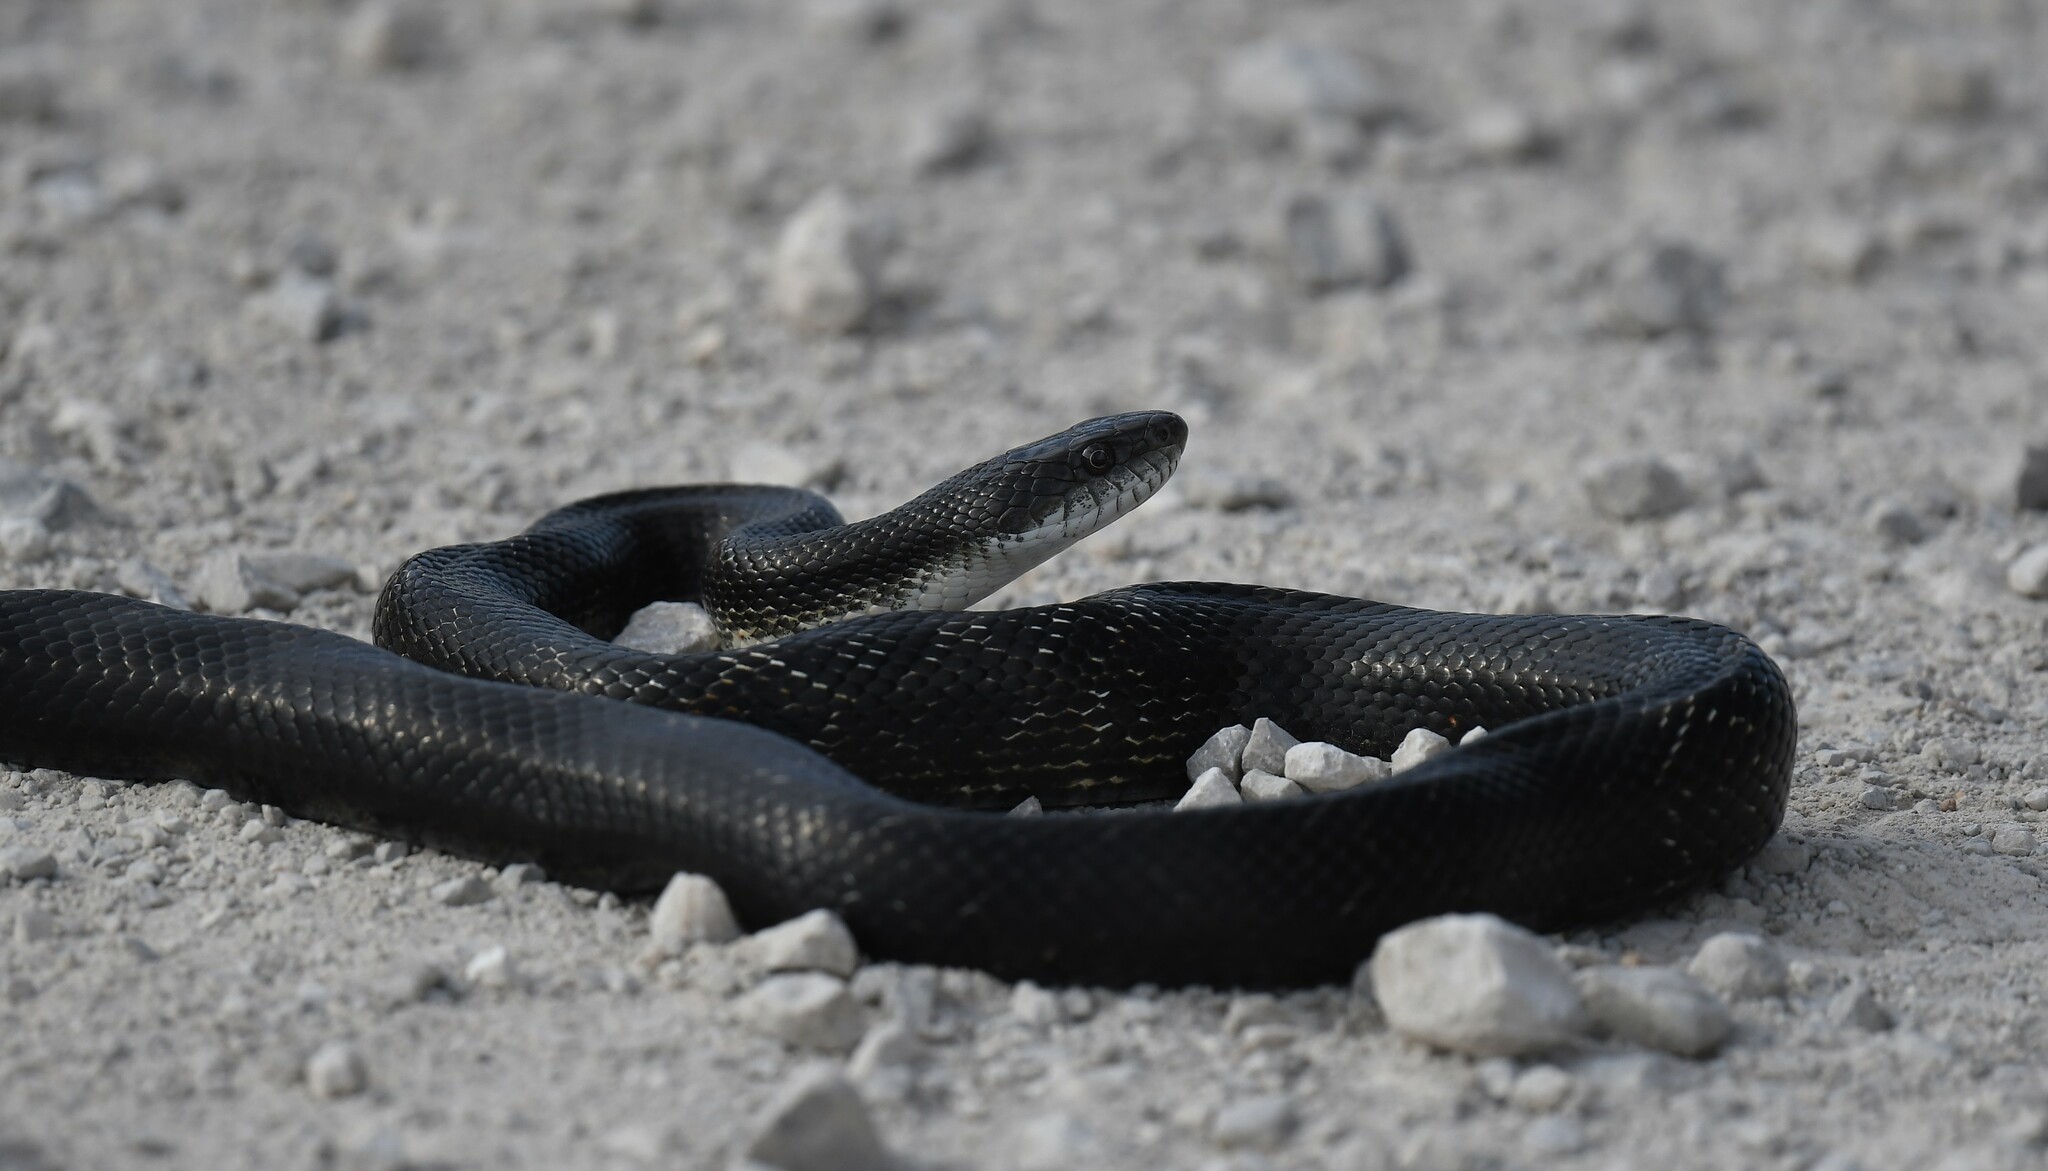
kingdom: Animalia
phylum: Chordata
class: Squamata
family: Colubridae
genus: Pantherophis
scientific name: Pantherophis obsoletus
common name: Black rat snake
